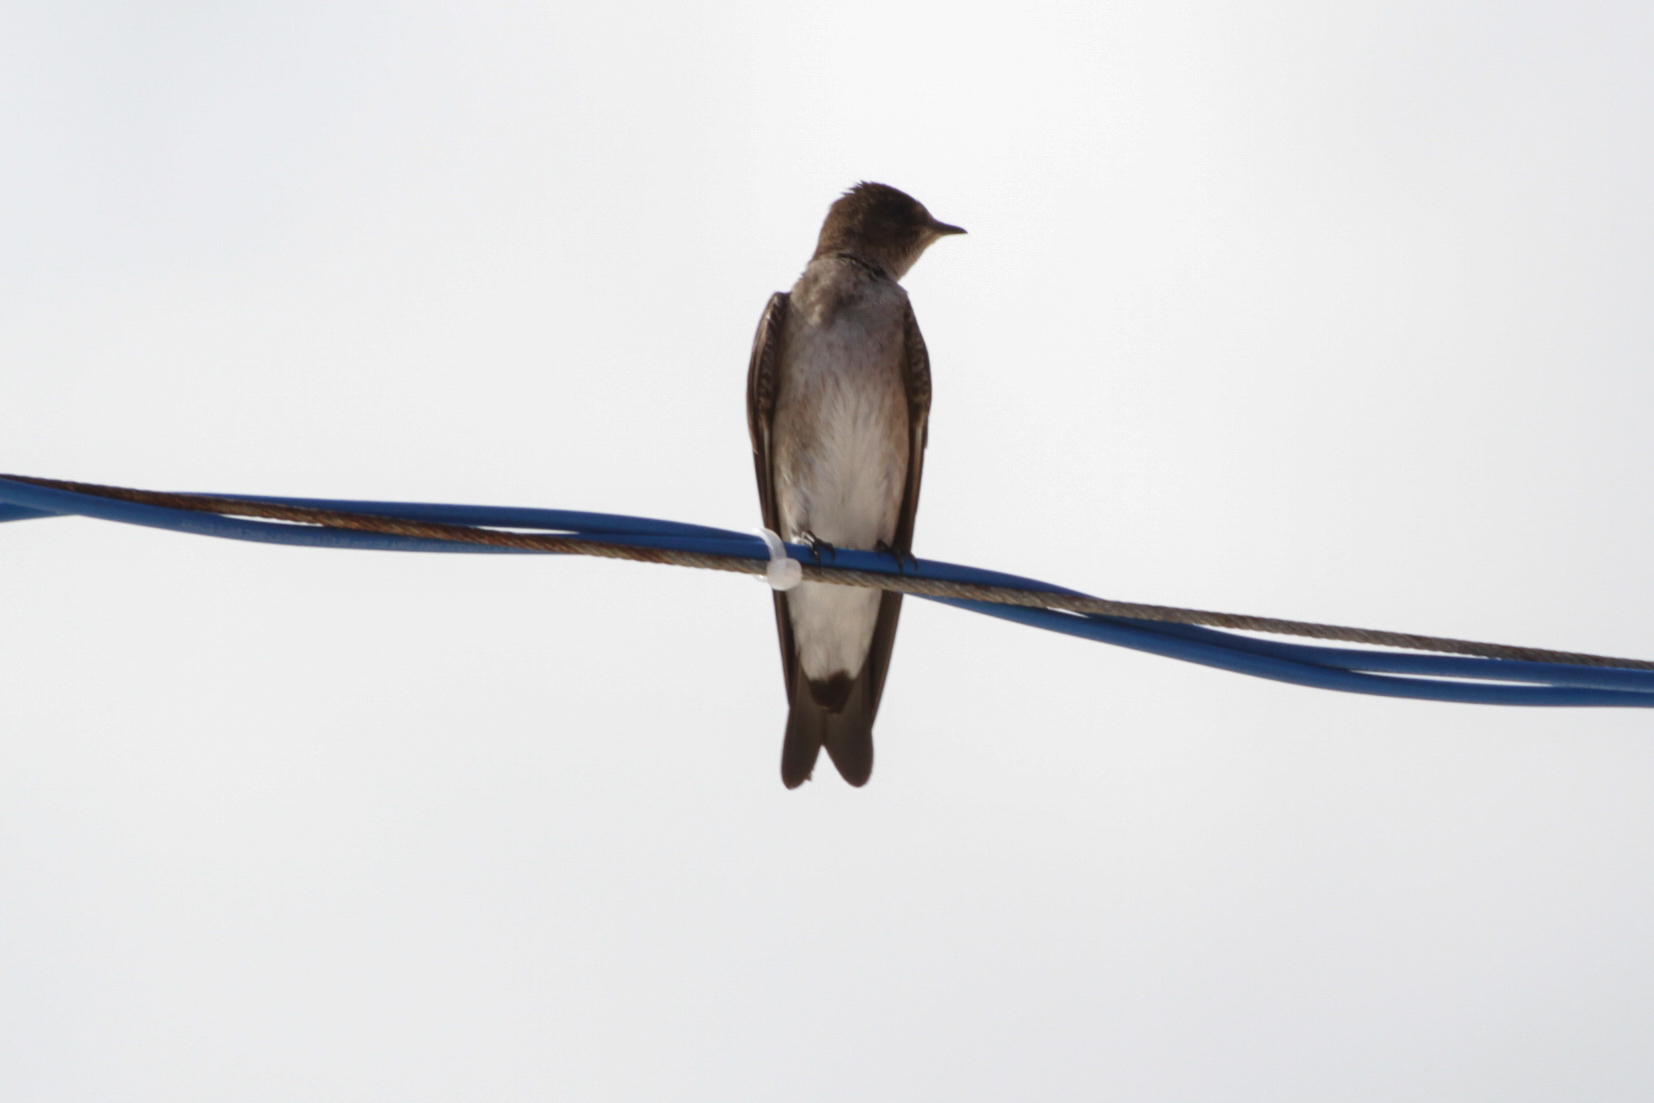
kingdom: Animalia
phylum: Chordata
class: Aves
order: Passeriformes
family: Hirundinidae
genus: Stelgidopteryx
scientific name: Stelgidopteryx serripennis
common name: Northern rough-winged swallow
